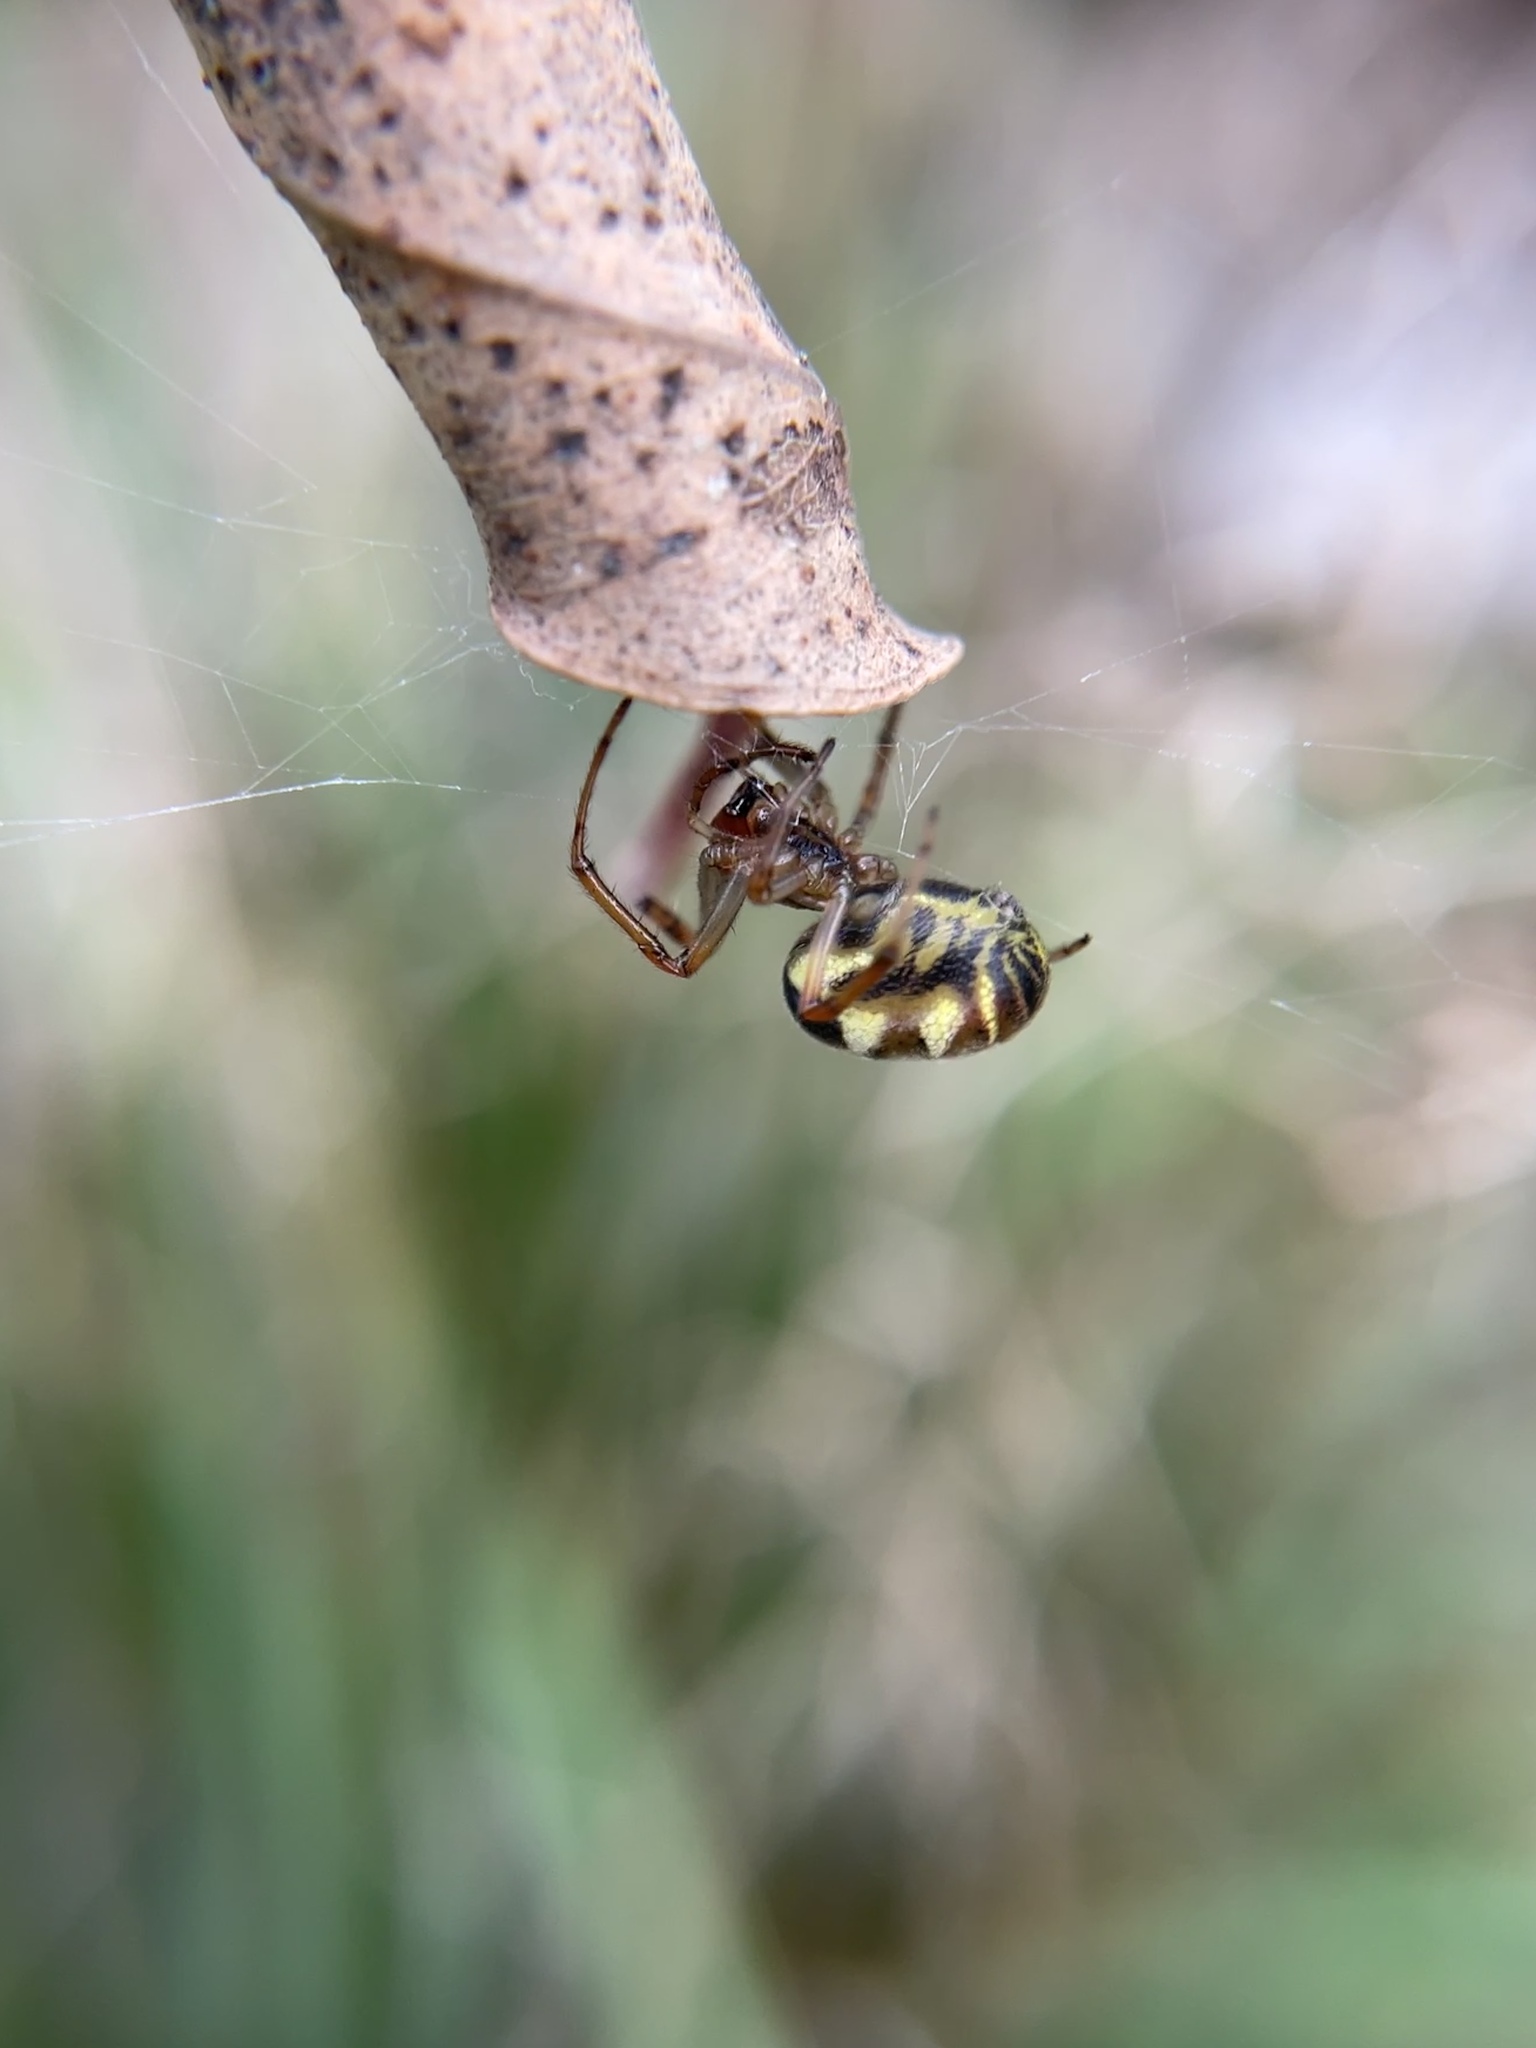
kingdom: Animalia
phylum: Arthropoda
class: Arachnida
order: Araneae
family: Araneidae
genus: Phonognatha
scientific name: Phonognatha graeffei
